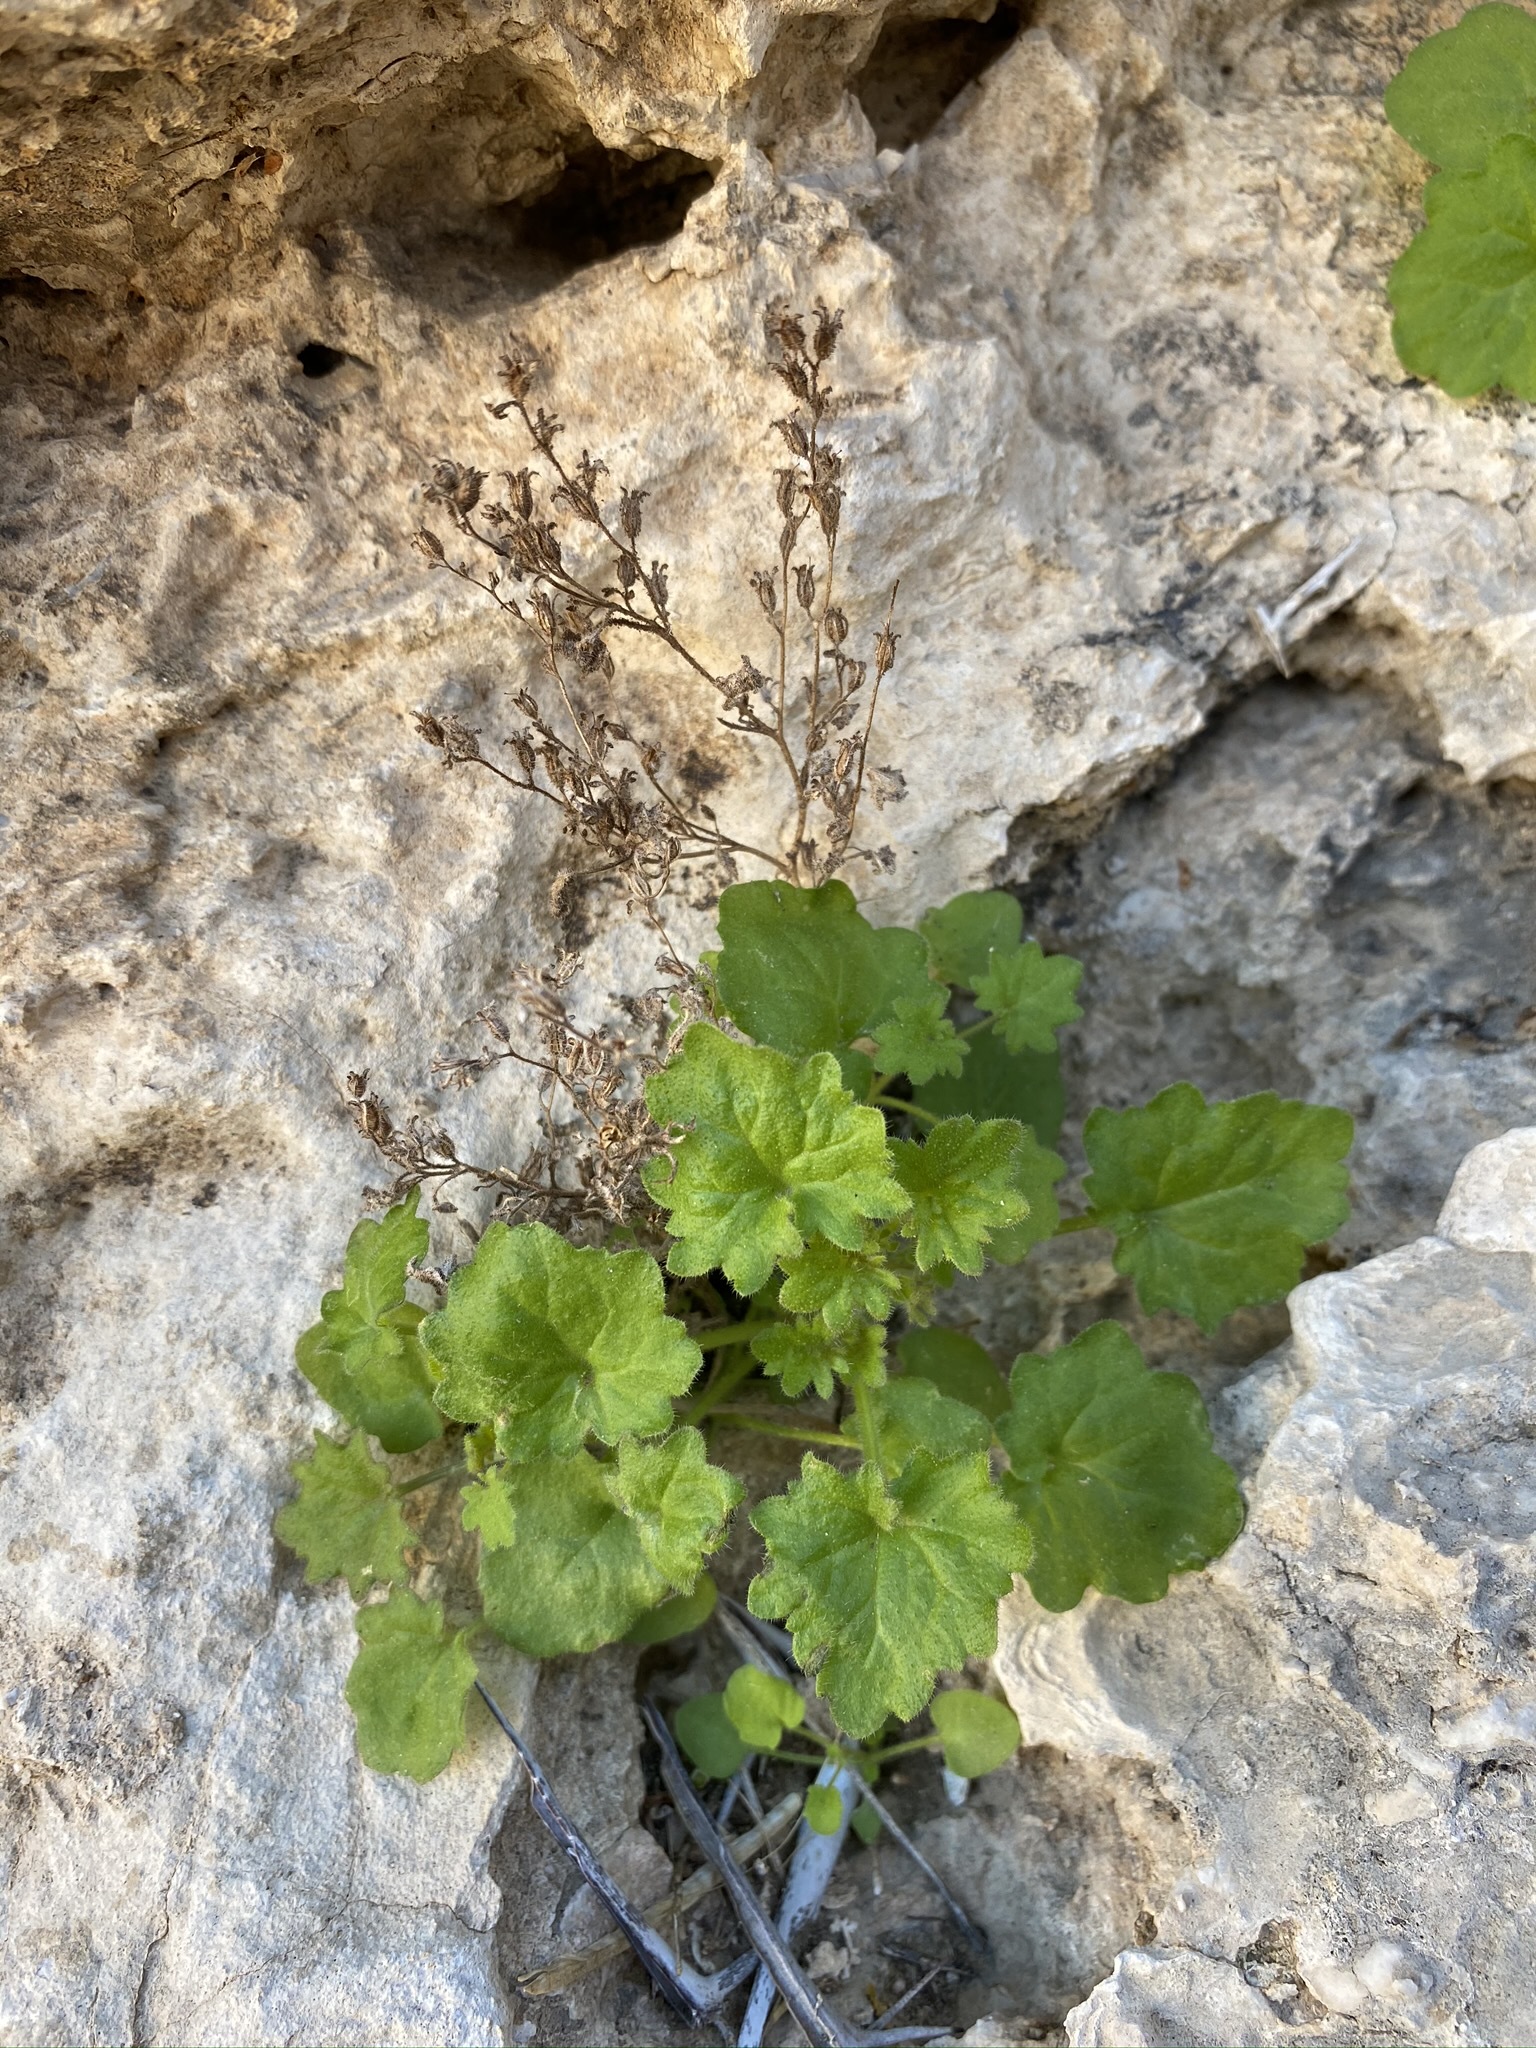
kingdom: Plantae
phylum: Tracheophyta
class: Magnoliopsida
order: Boraginales
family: Hydrophyllaceae
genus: Phacelia
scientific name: Phacelia rotundifolia
